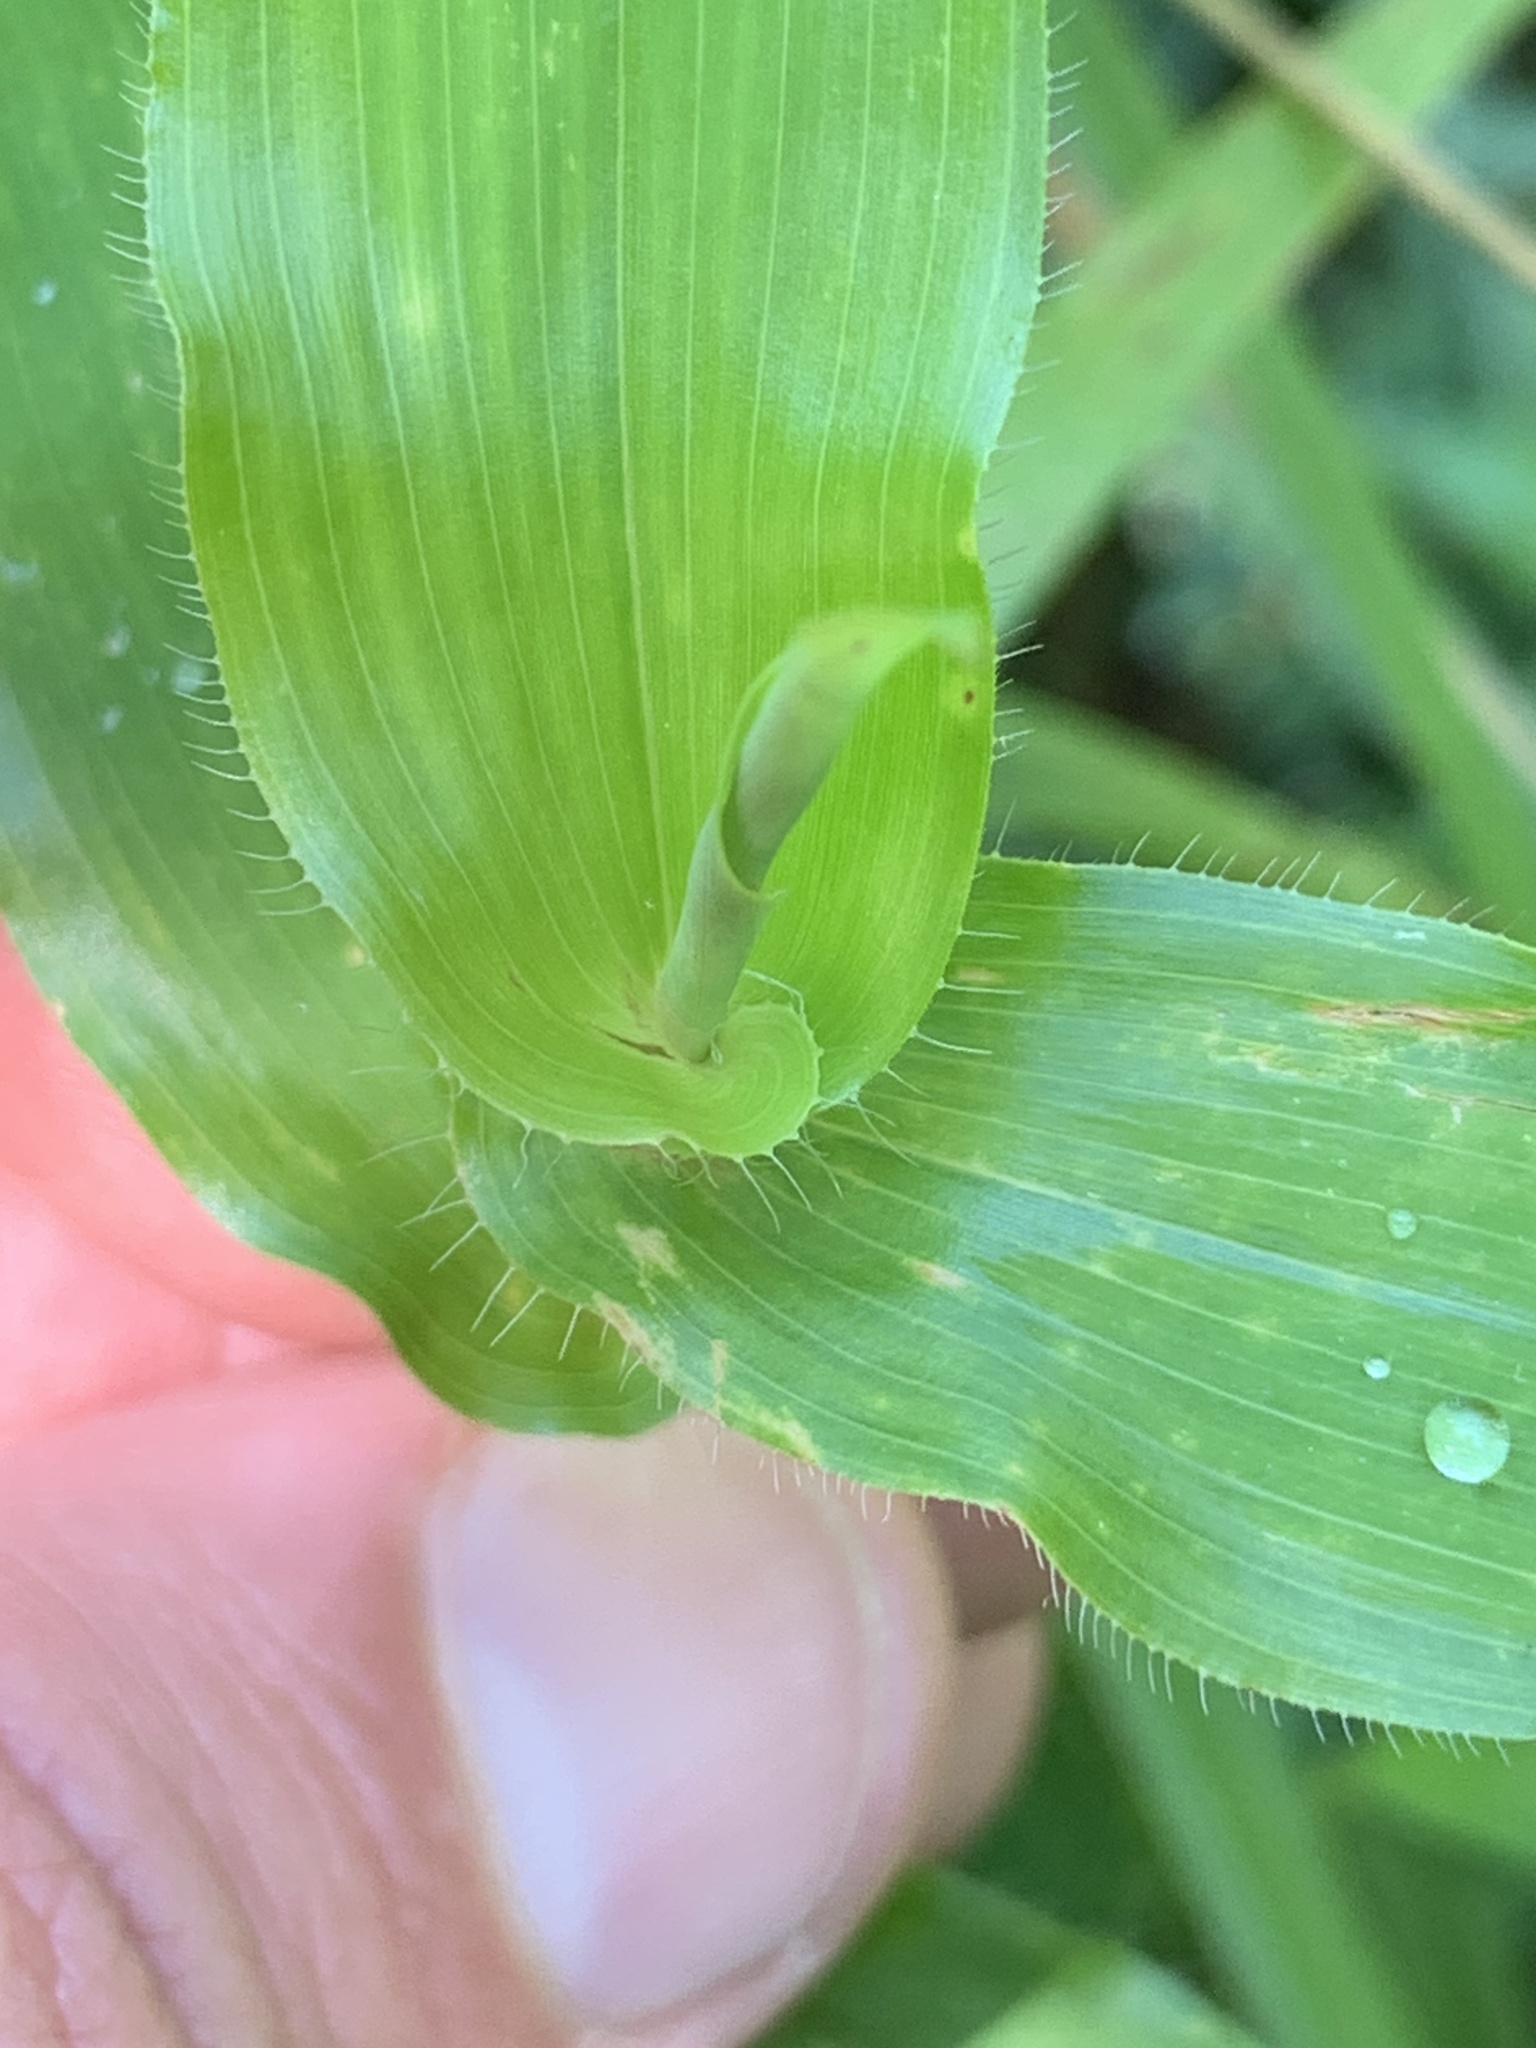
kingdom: Plantae
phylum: Tracheophyta
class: Liliopsida
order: Poales
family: Poaceae
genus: Arthraxon
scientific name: Arthraxon hispidus
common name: Small carpgrass
